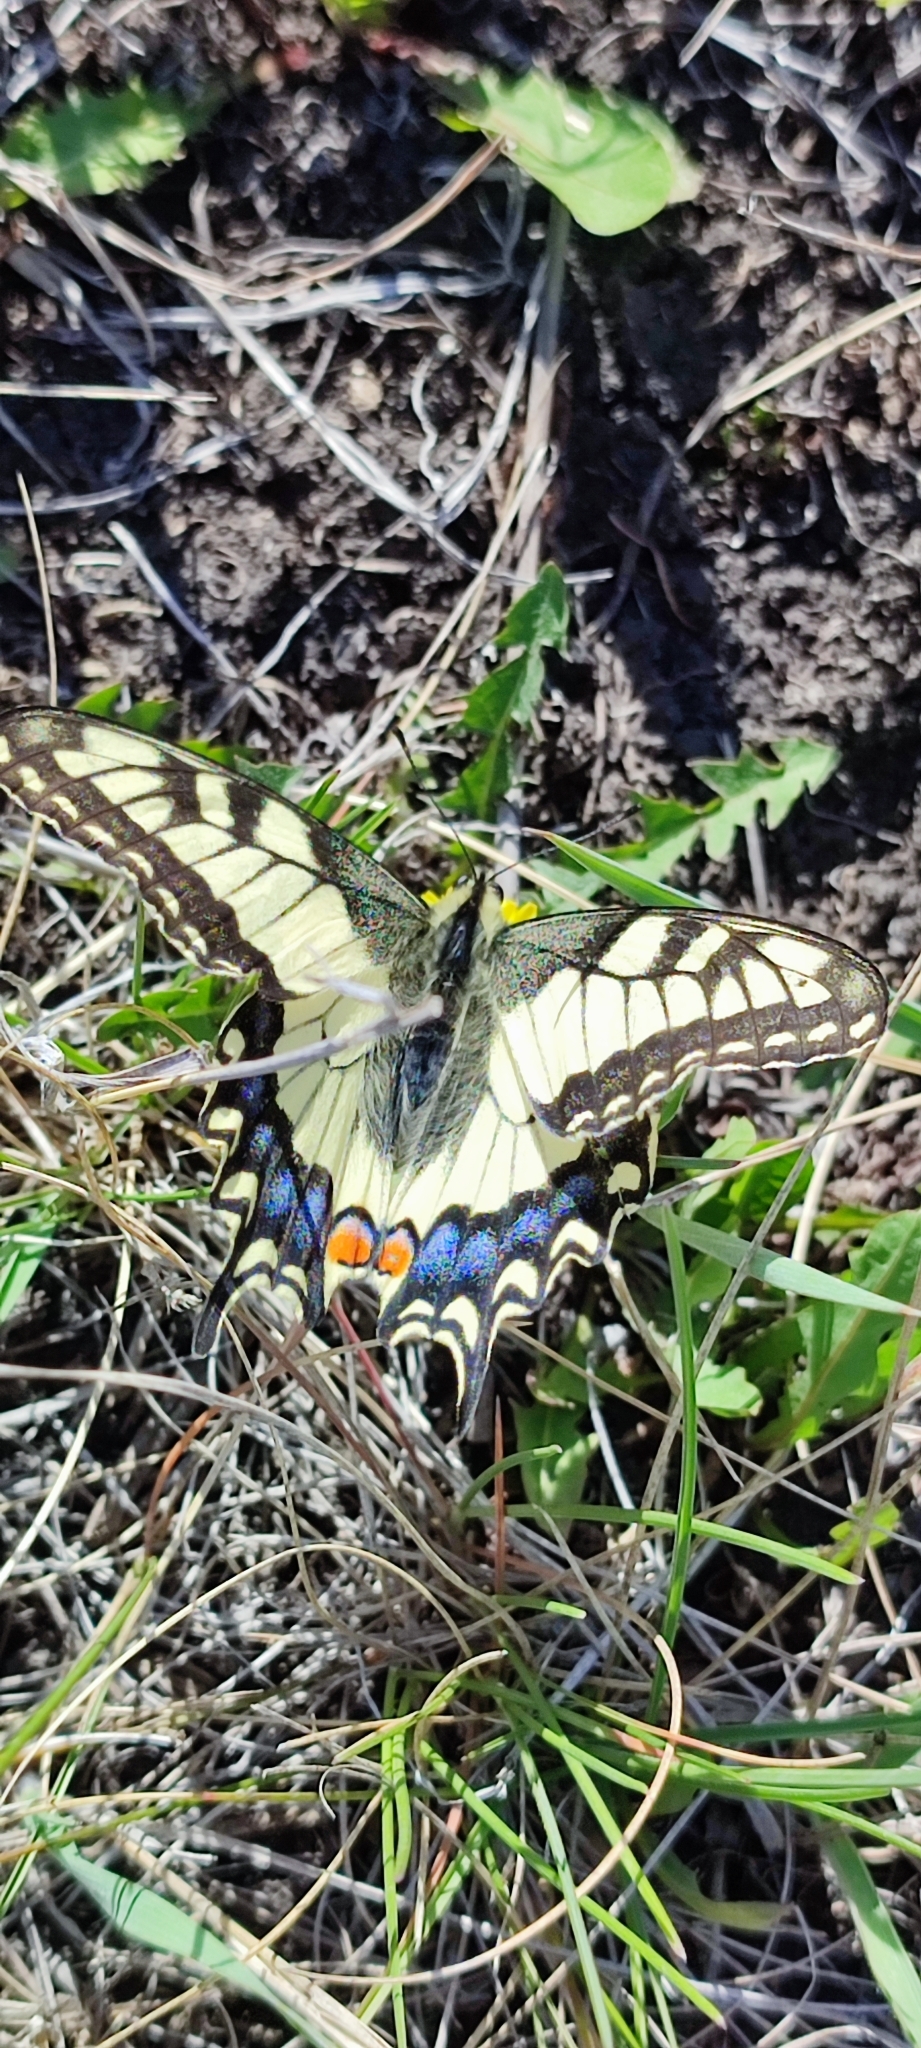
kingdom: Animalia
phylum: Arthropoda
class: Insecta
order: Lepidoptera
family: Papilionidae
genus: Papilio
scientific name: Papilio machaon
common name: Swallowtail
